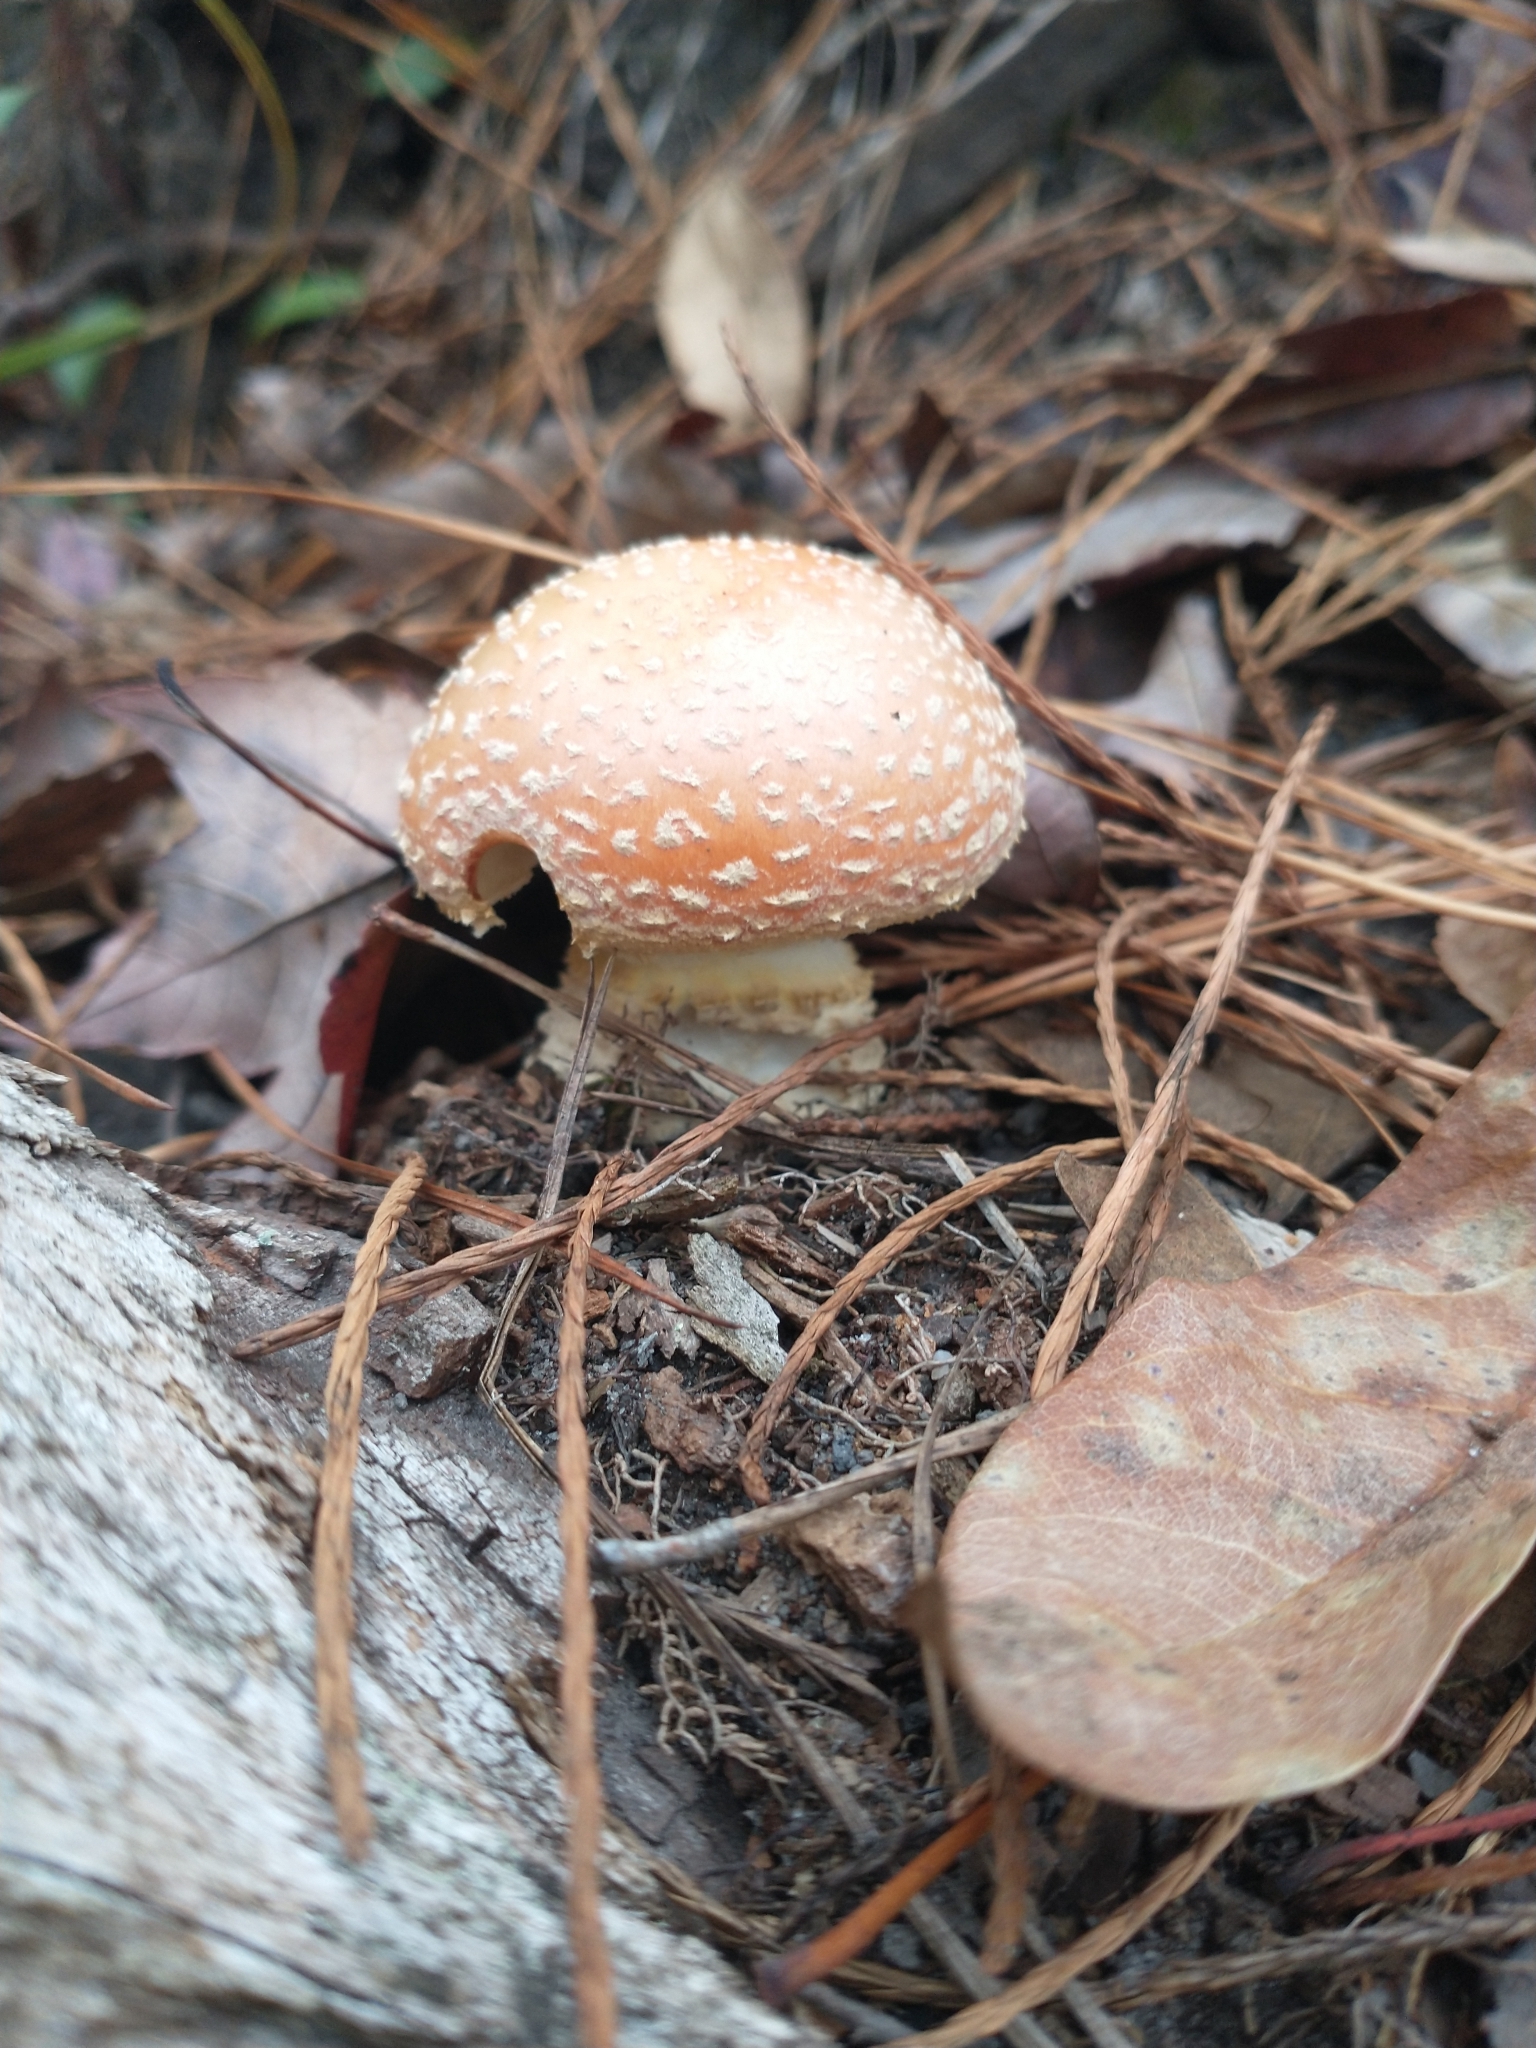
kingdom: Fungi
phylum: Basidiomycota
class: Agaricomycetes
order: Agaricales
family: Amanitaceae
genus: Amanita
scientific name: Amanita persicina
